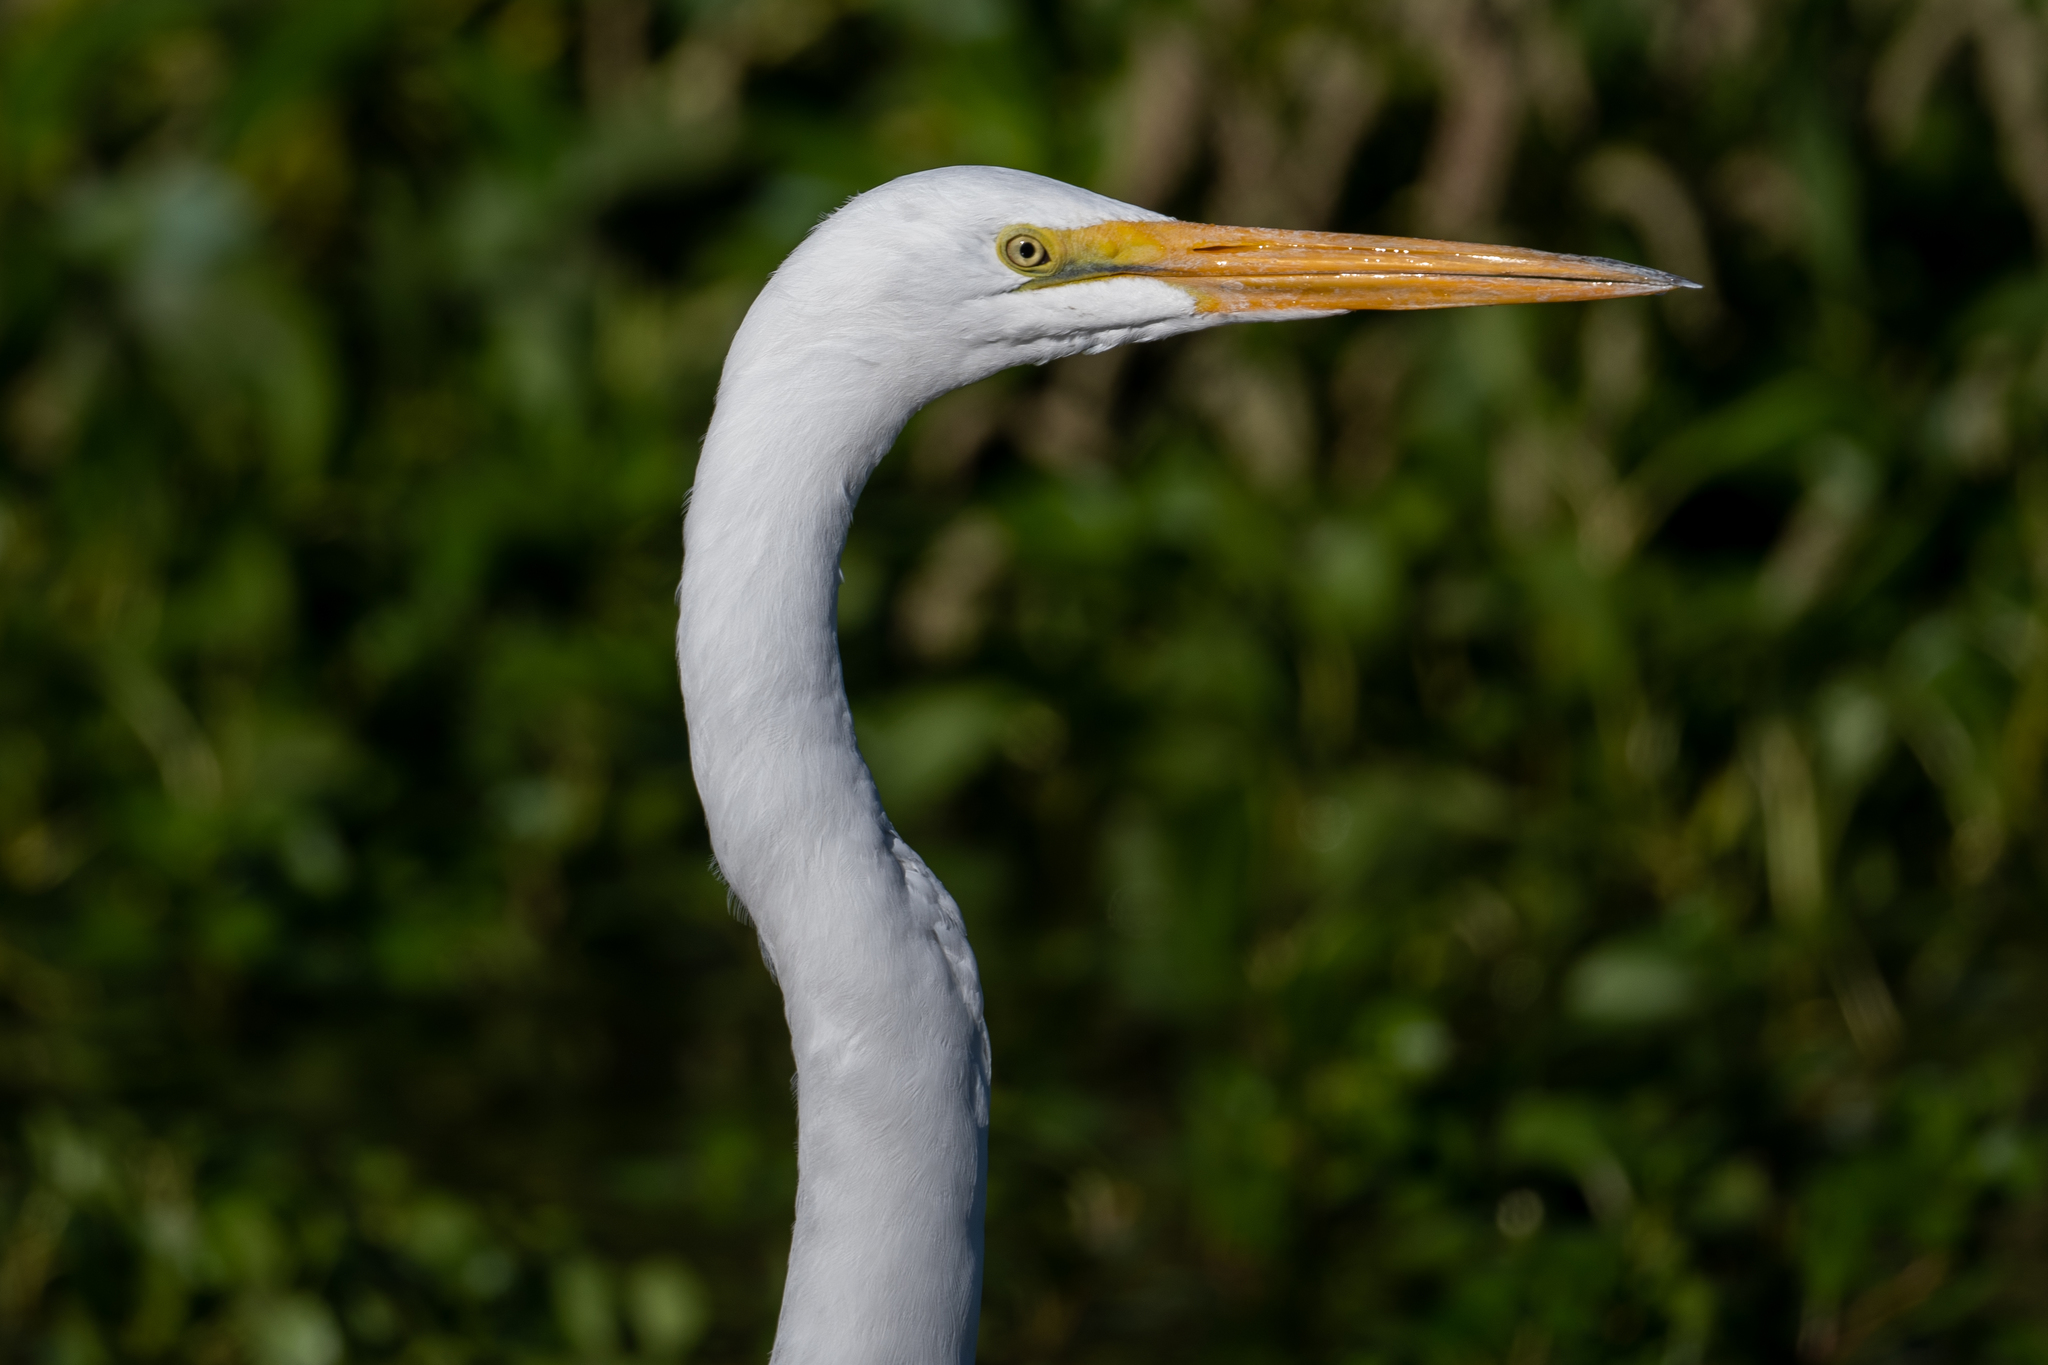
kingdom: Animalia
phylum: Chordata
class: Aves
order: Pelecaniformes
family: Ardeidae
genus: Ardea
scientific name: Ardea alba
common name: Great egret
